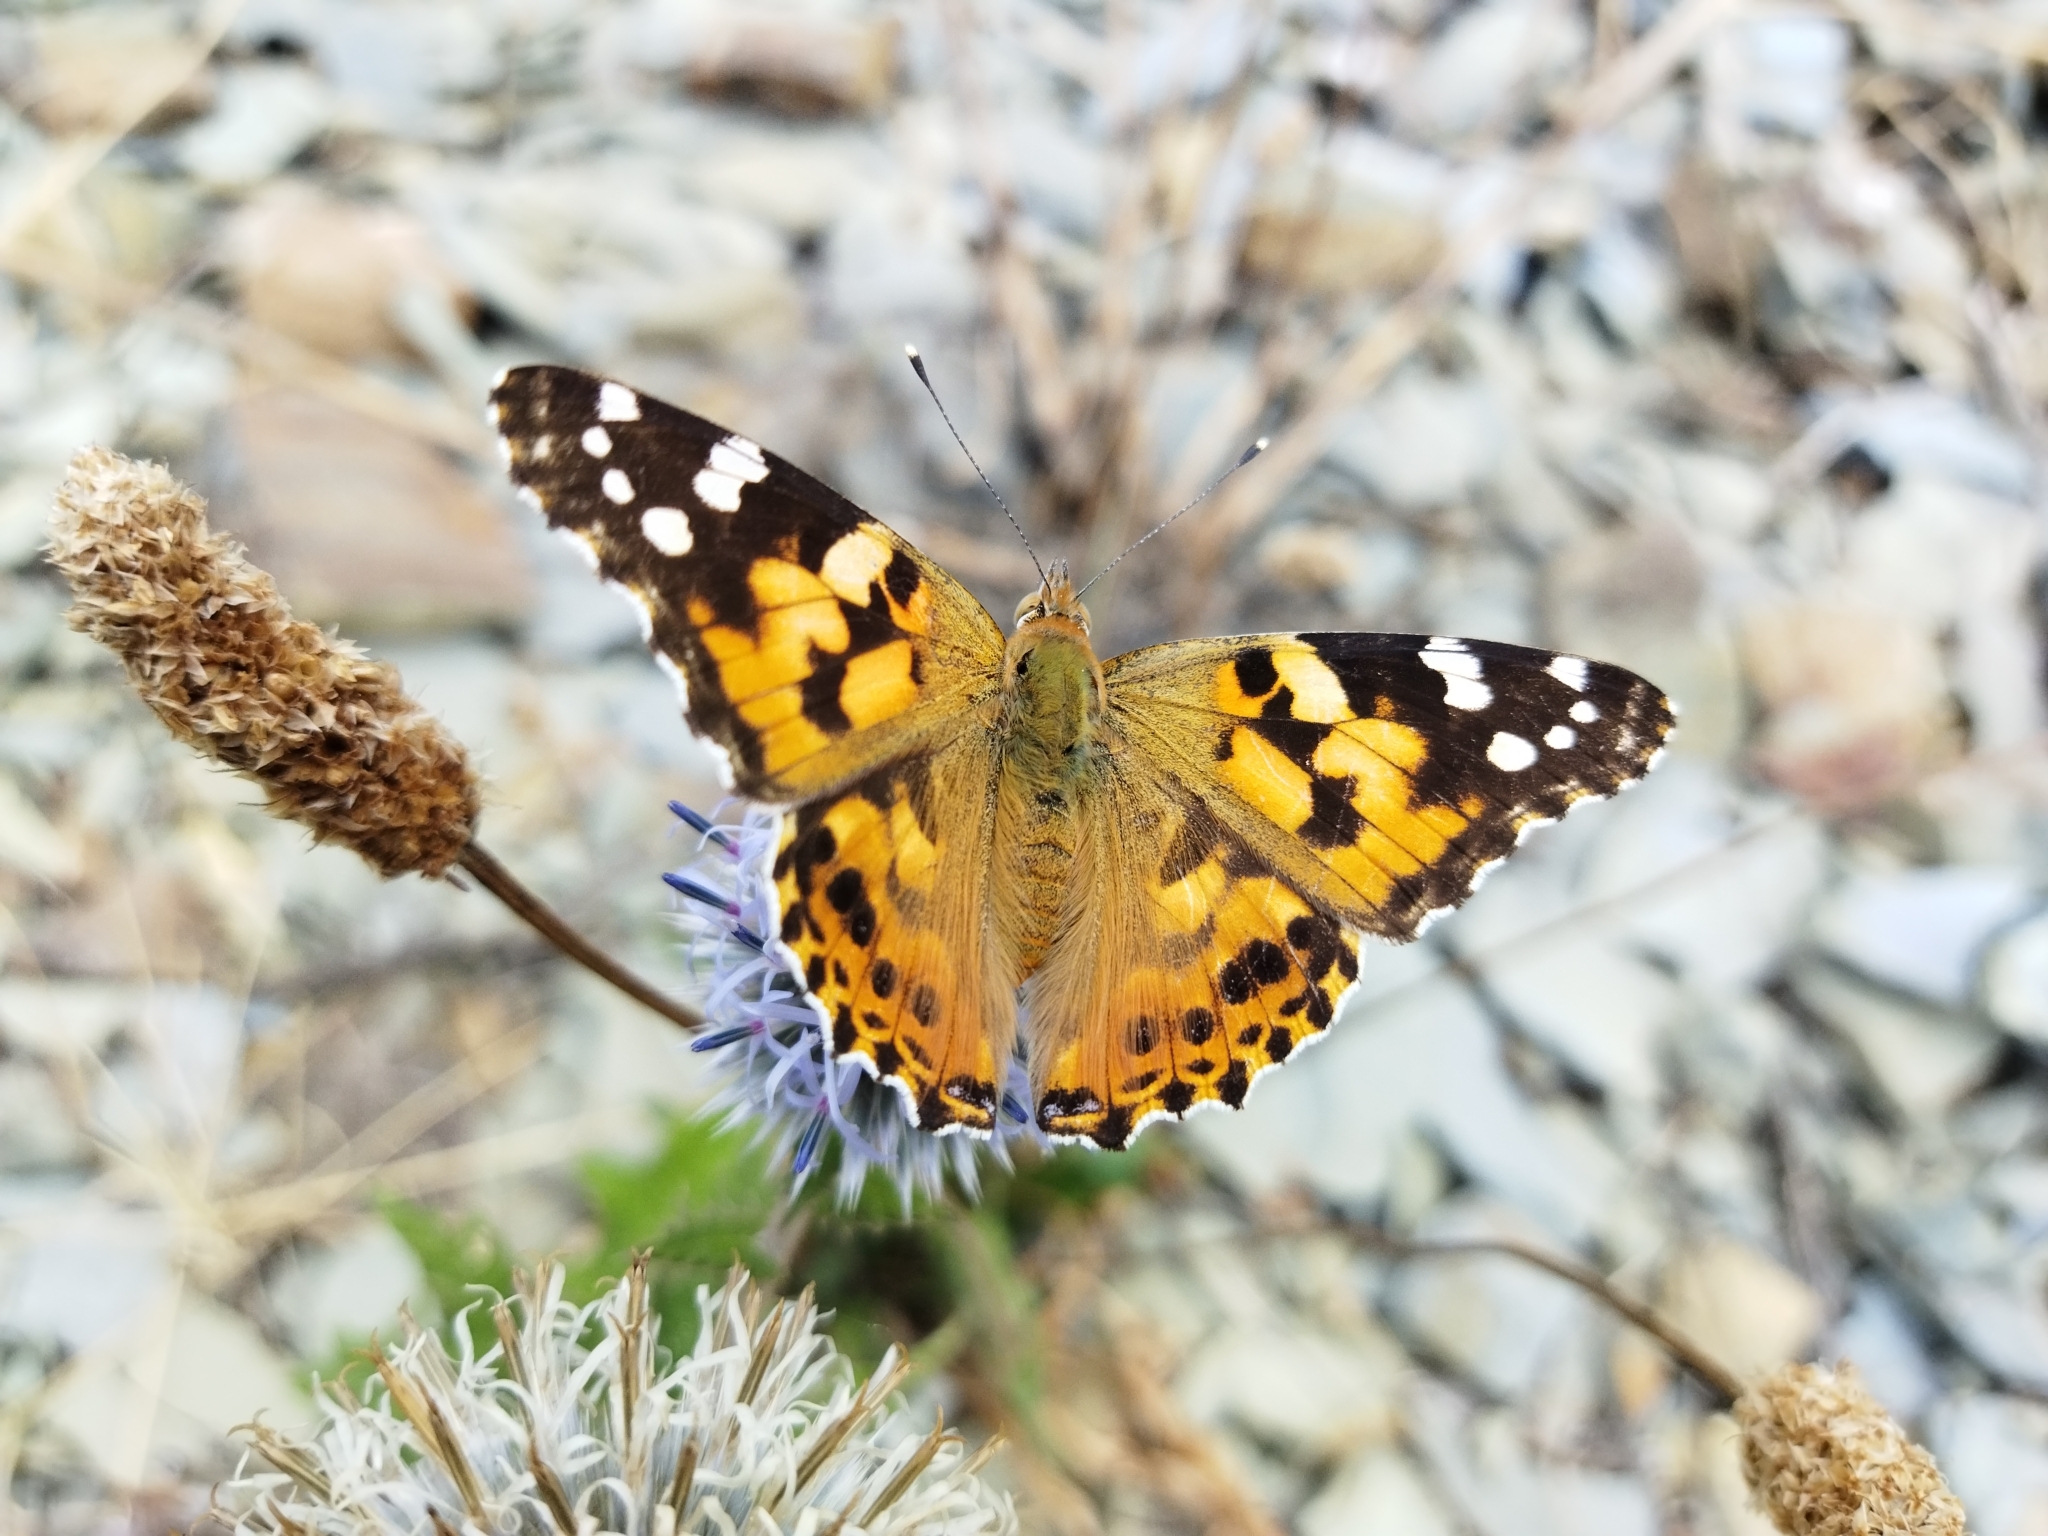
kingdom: Animalia
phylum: Arthropoda
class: Insecta
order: Lepidoptera
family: Nymphalidae
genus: Vanessa
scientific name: Vanessa cardui
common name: Painted lady
